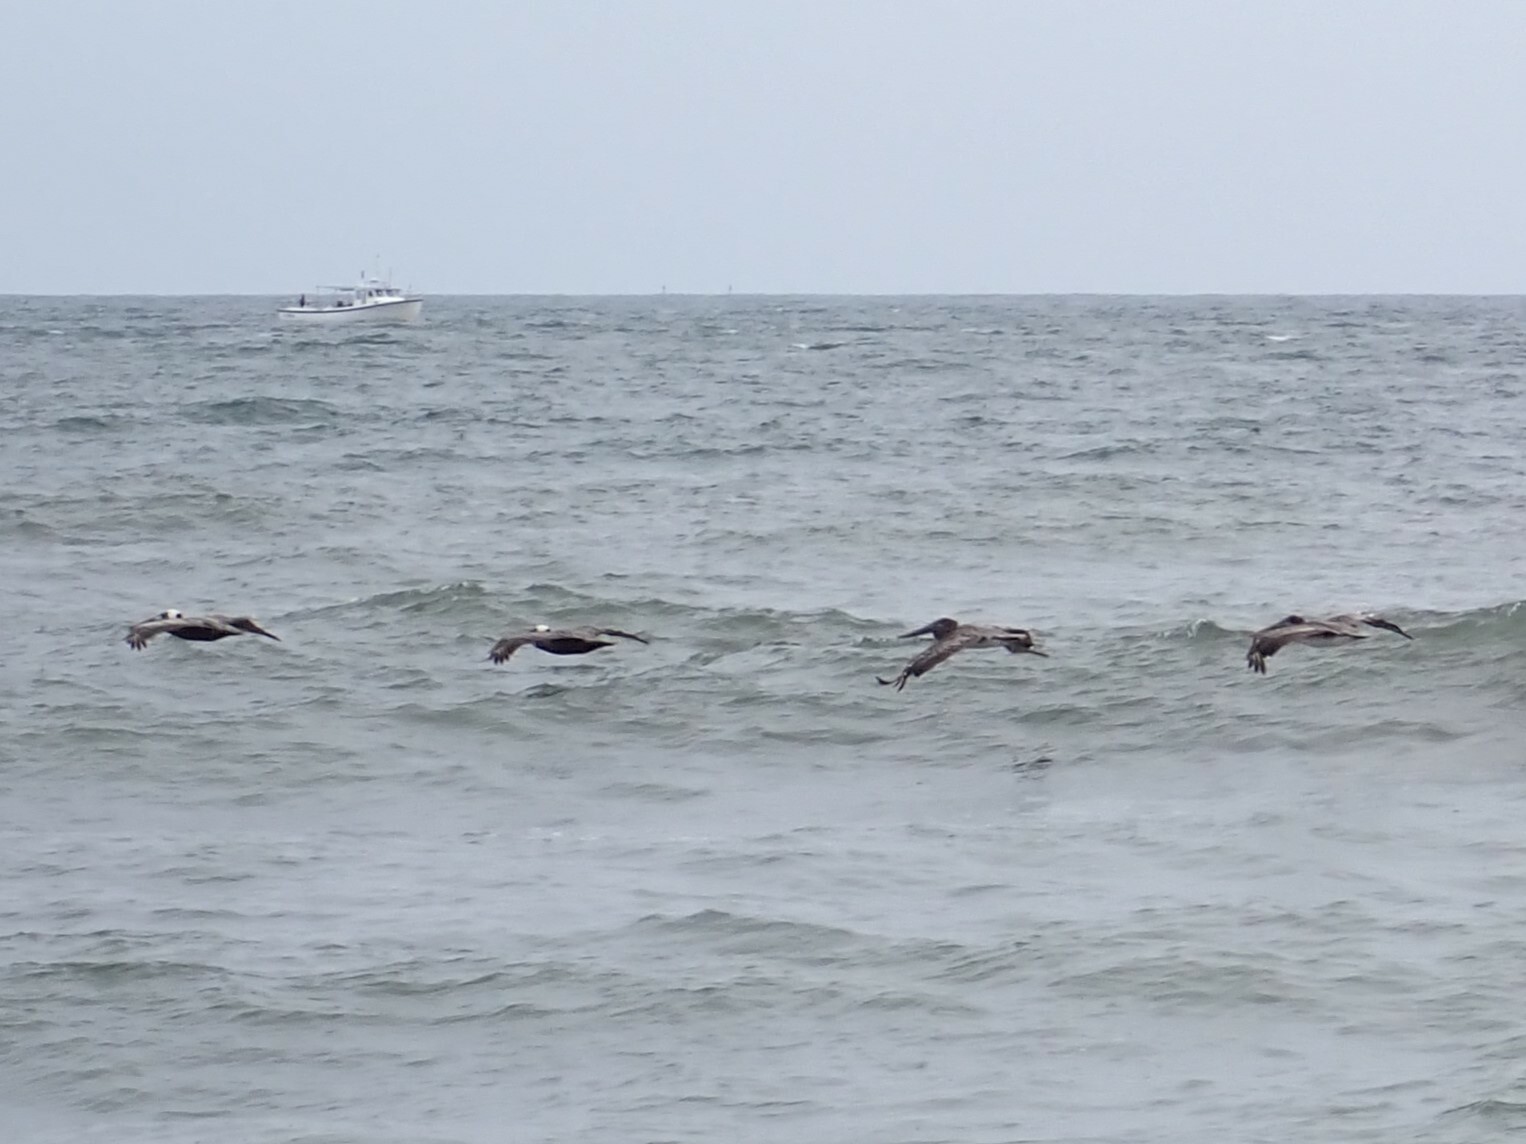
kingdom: Animalia
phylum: Chordata
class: Aves
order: Pelecaniformes
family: Pelecanidae
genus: Pelecanus
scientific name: Pelecanus occidentalis
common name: Brown pelican
